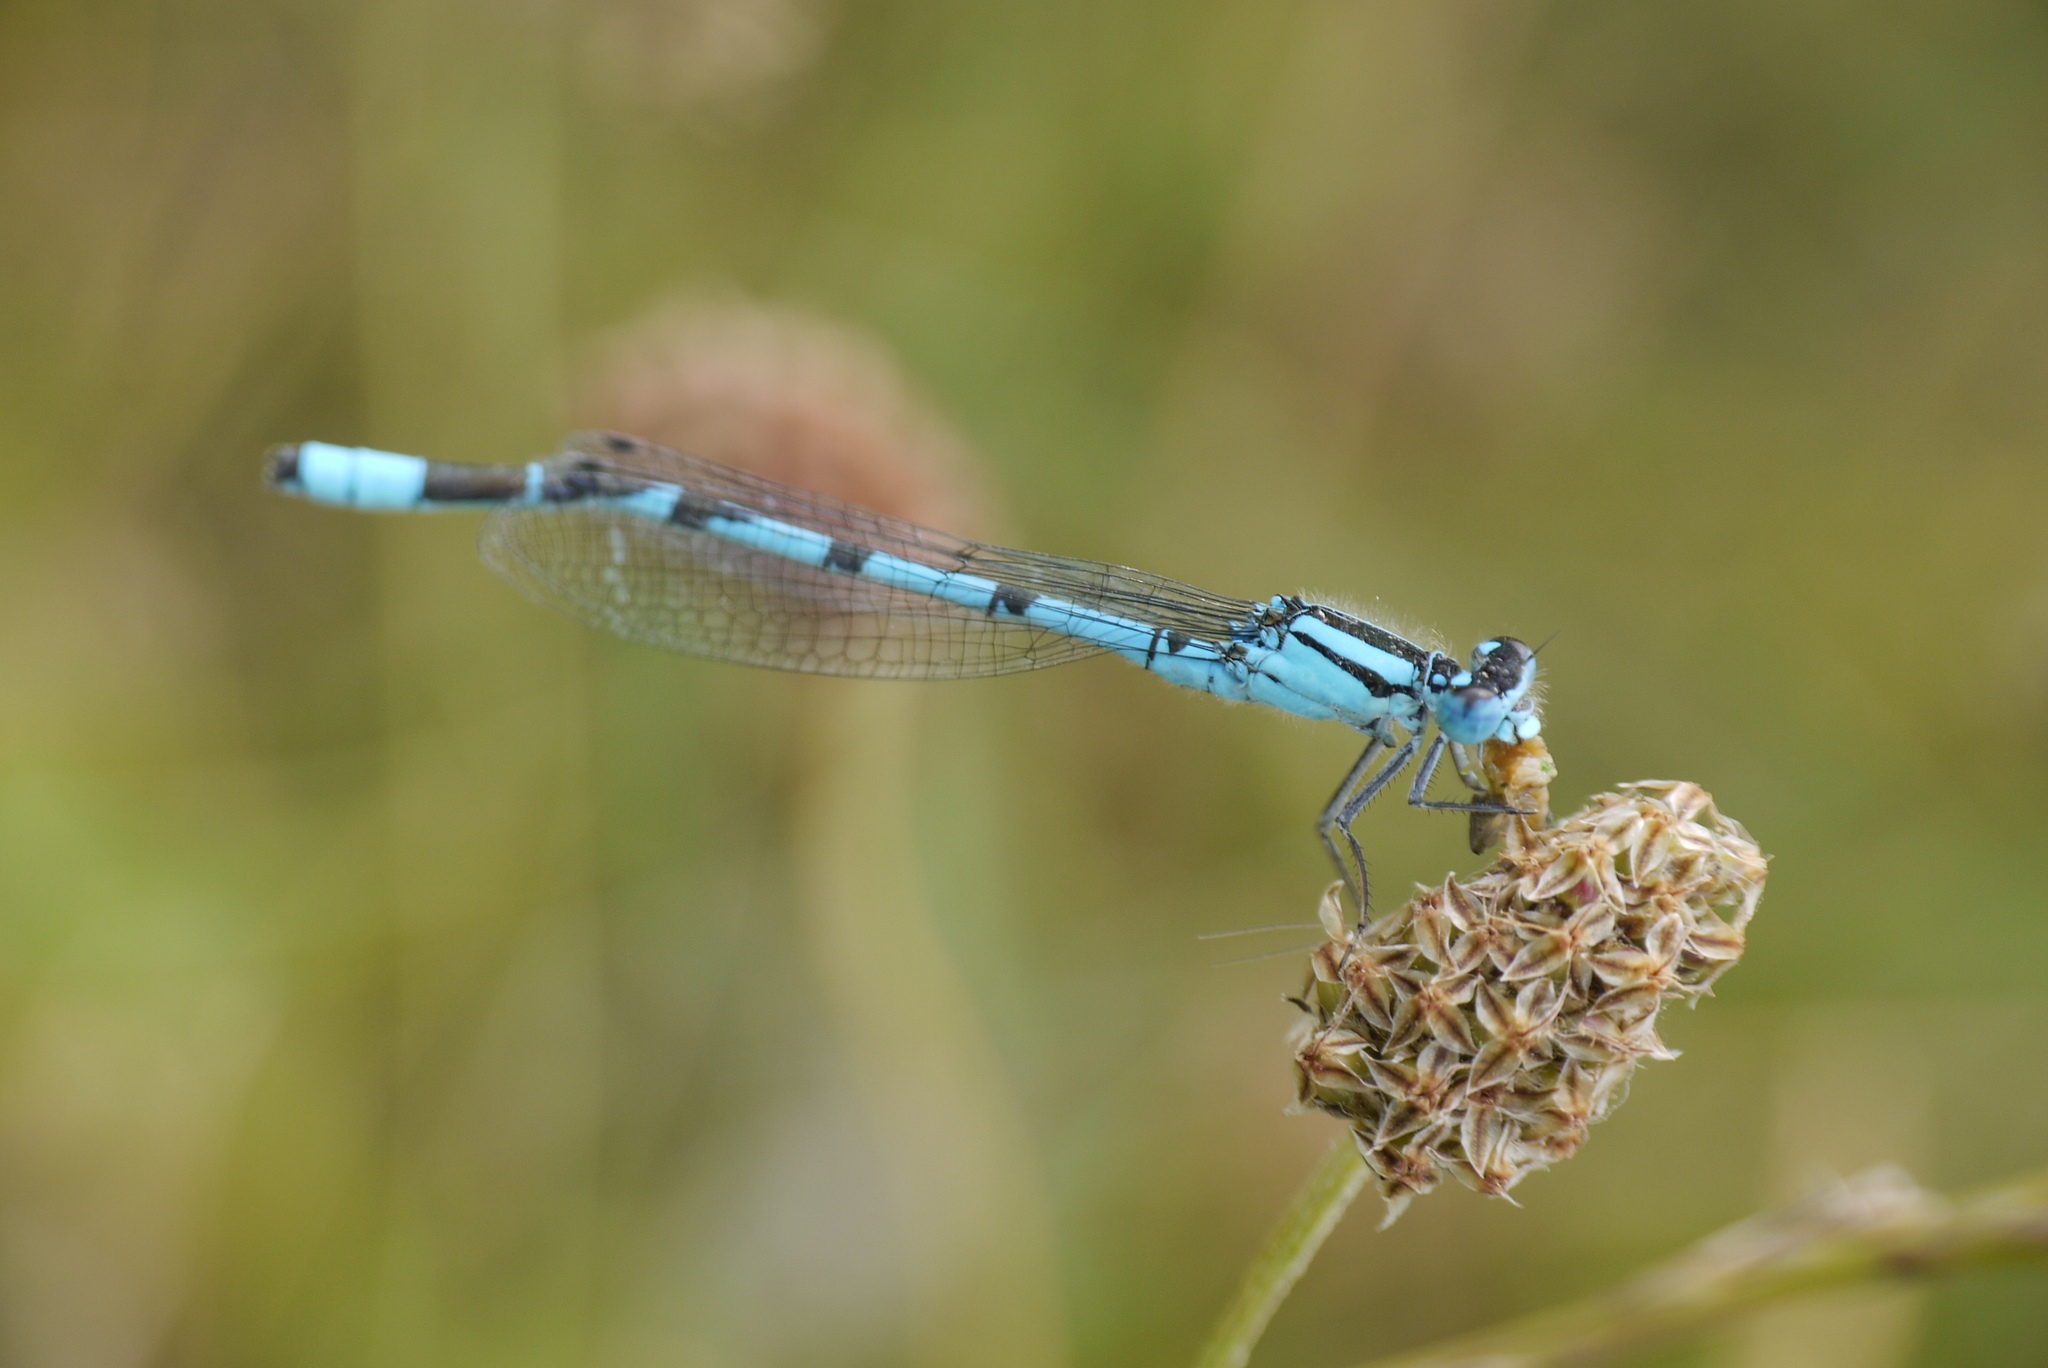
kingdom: Animalia
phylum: Arthropoda
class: Insecta
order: Odonata
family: Coenagrionidae
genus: Enallagma
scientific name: Enallagma cyathigerum
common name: Common blue damselfly
